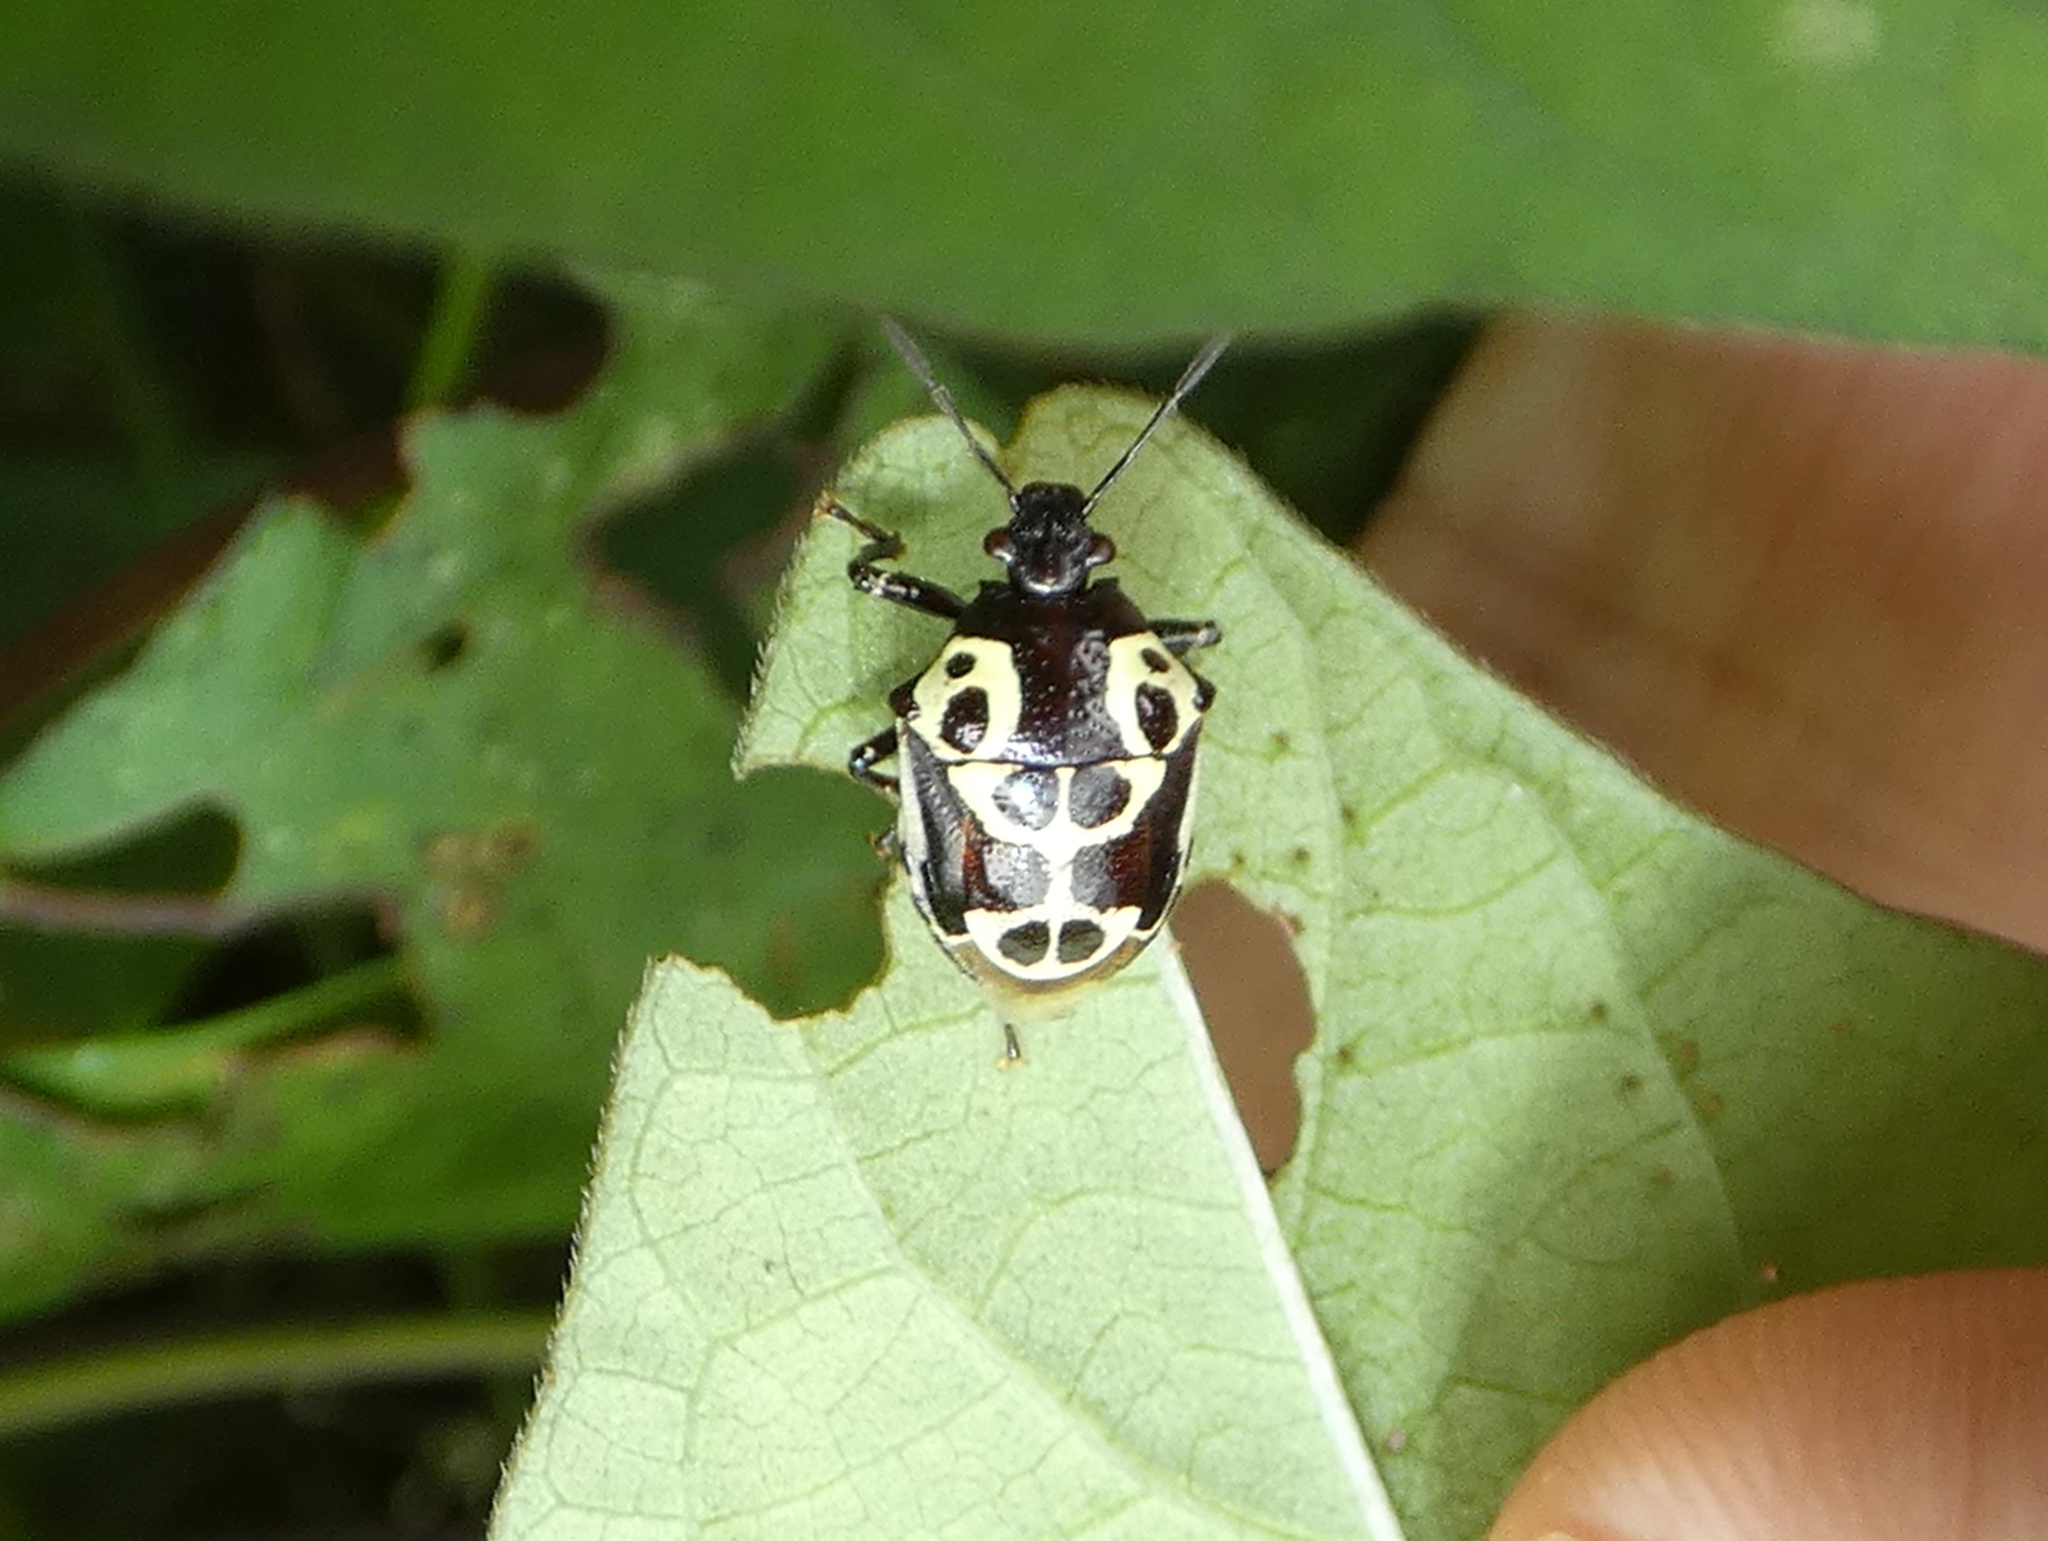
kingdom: Animalia
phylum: Arthropoda
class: Insecta
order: Hemiptera
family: Pentatomidae
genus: Stiretrus
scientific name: Stiretrus anchorago
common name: Anchor stink bug
